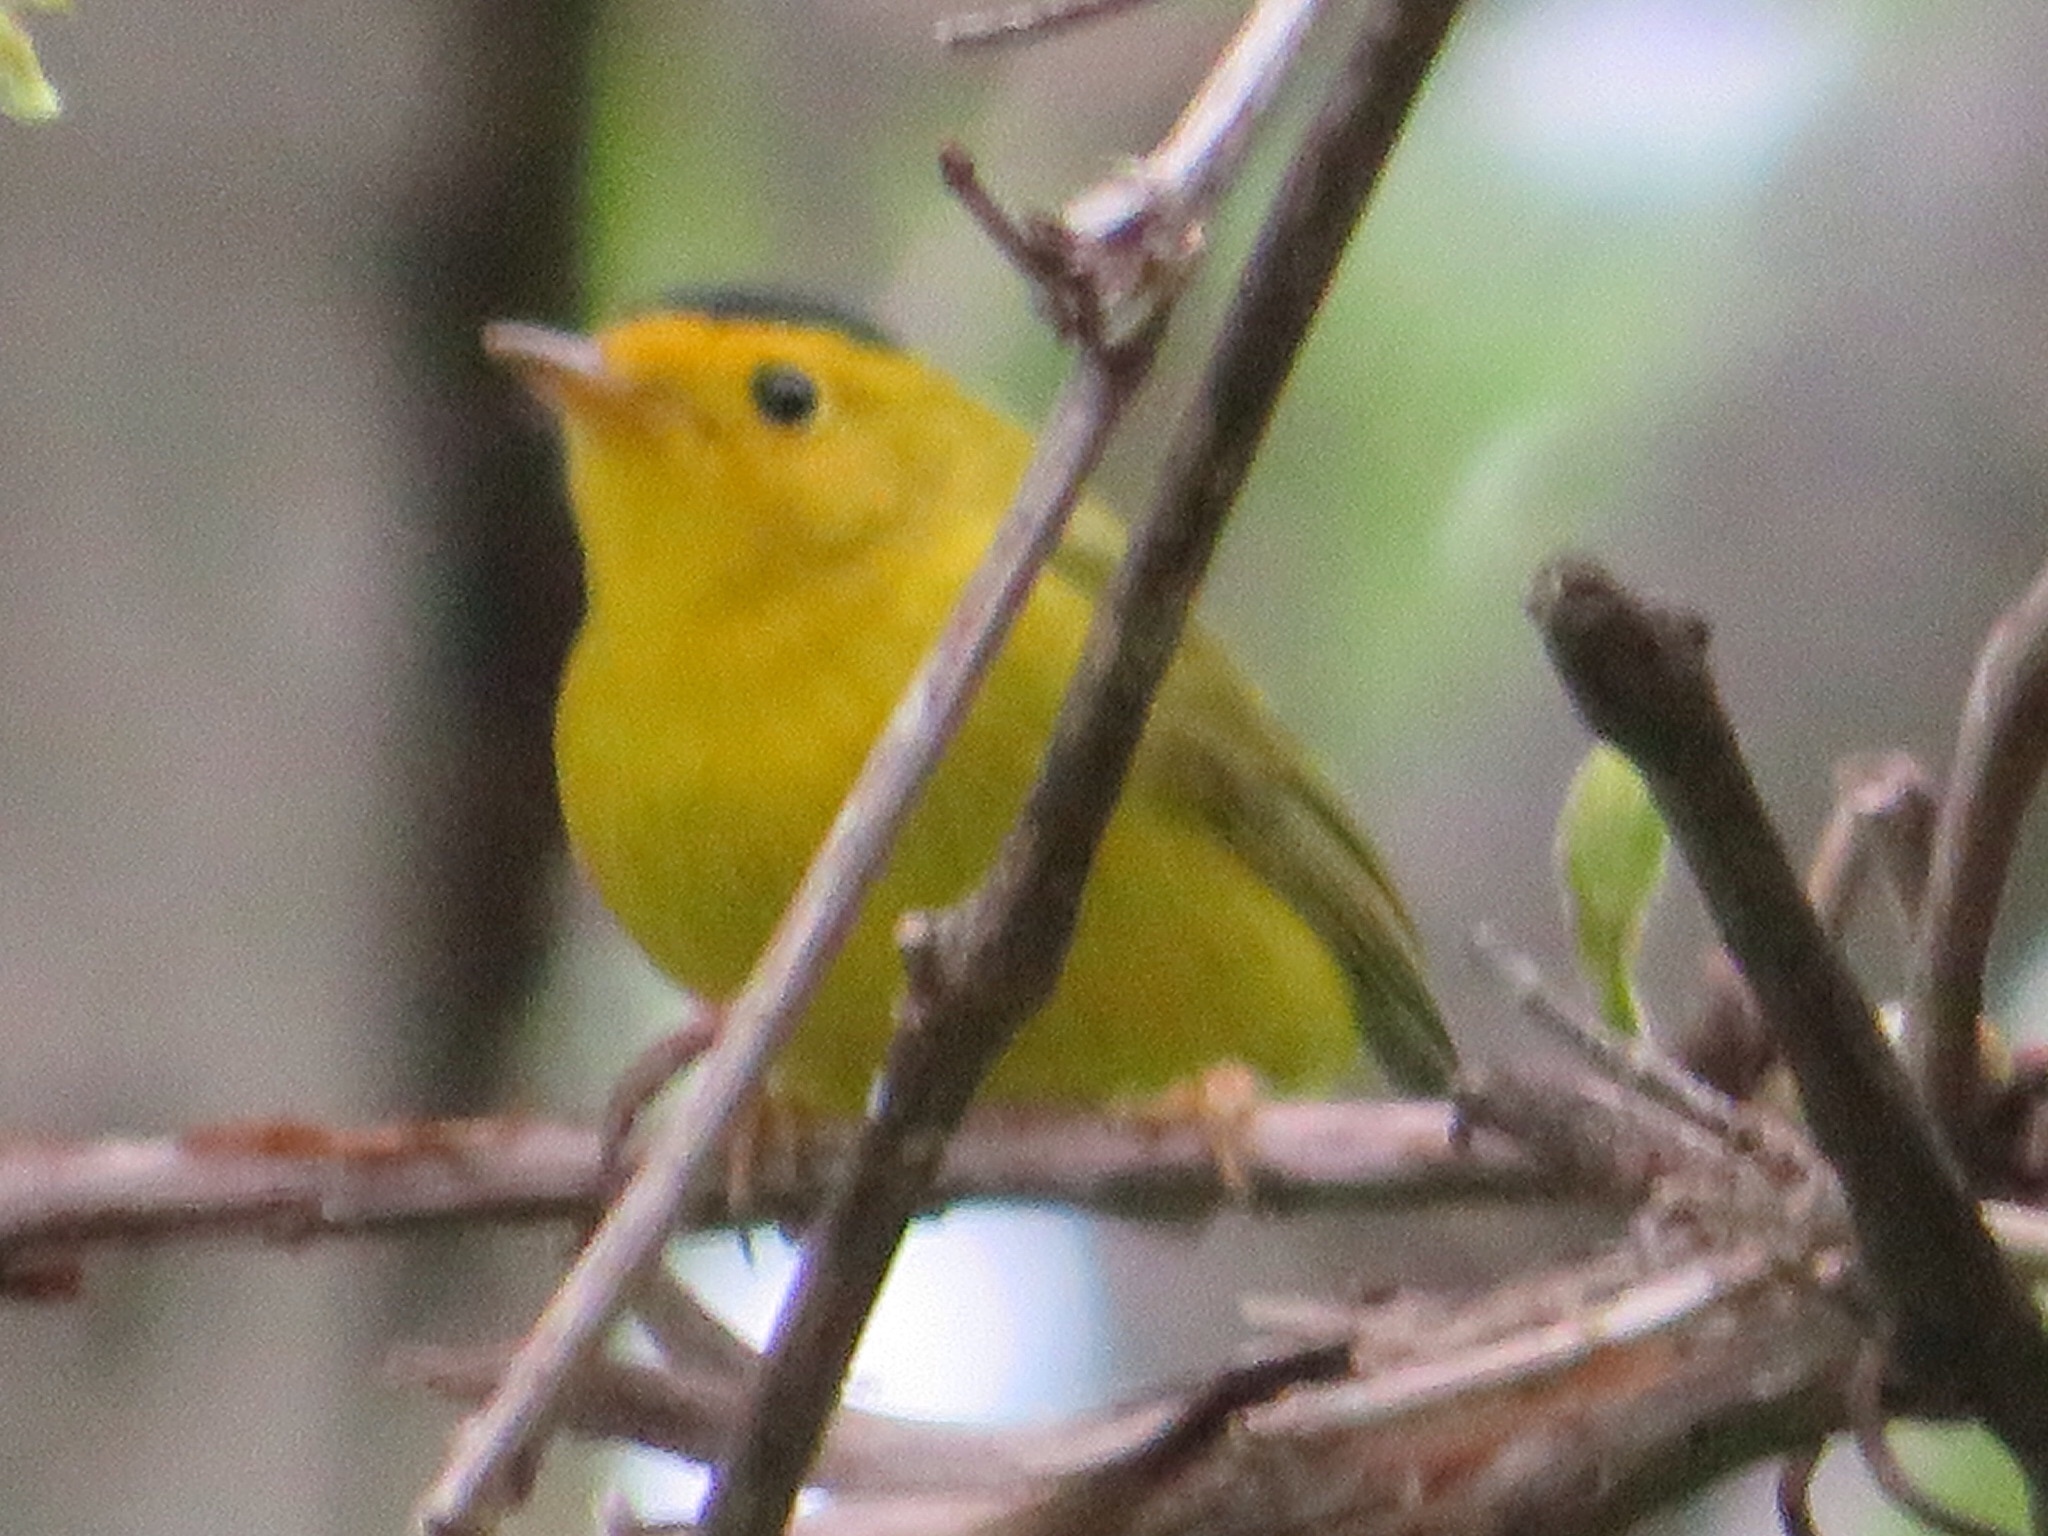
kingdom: Animalia
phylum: Chordata
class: Aves
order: Passeriformes
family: Parulidae
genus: Cardellina
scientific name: Cardellina pusilla
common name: Wilson's warbler
